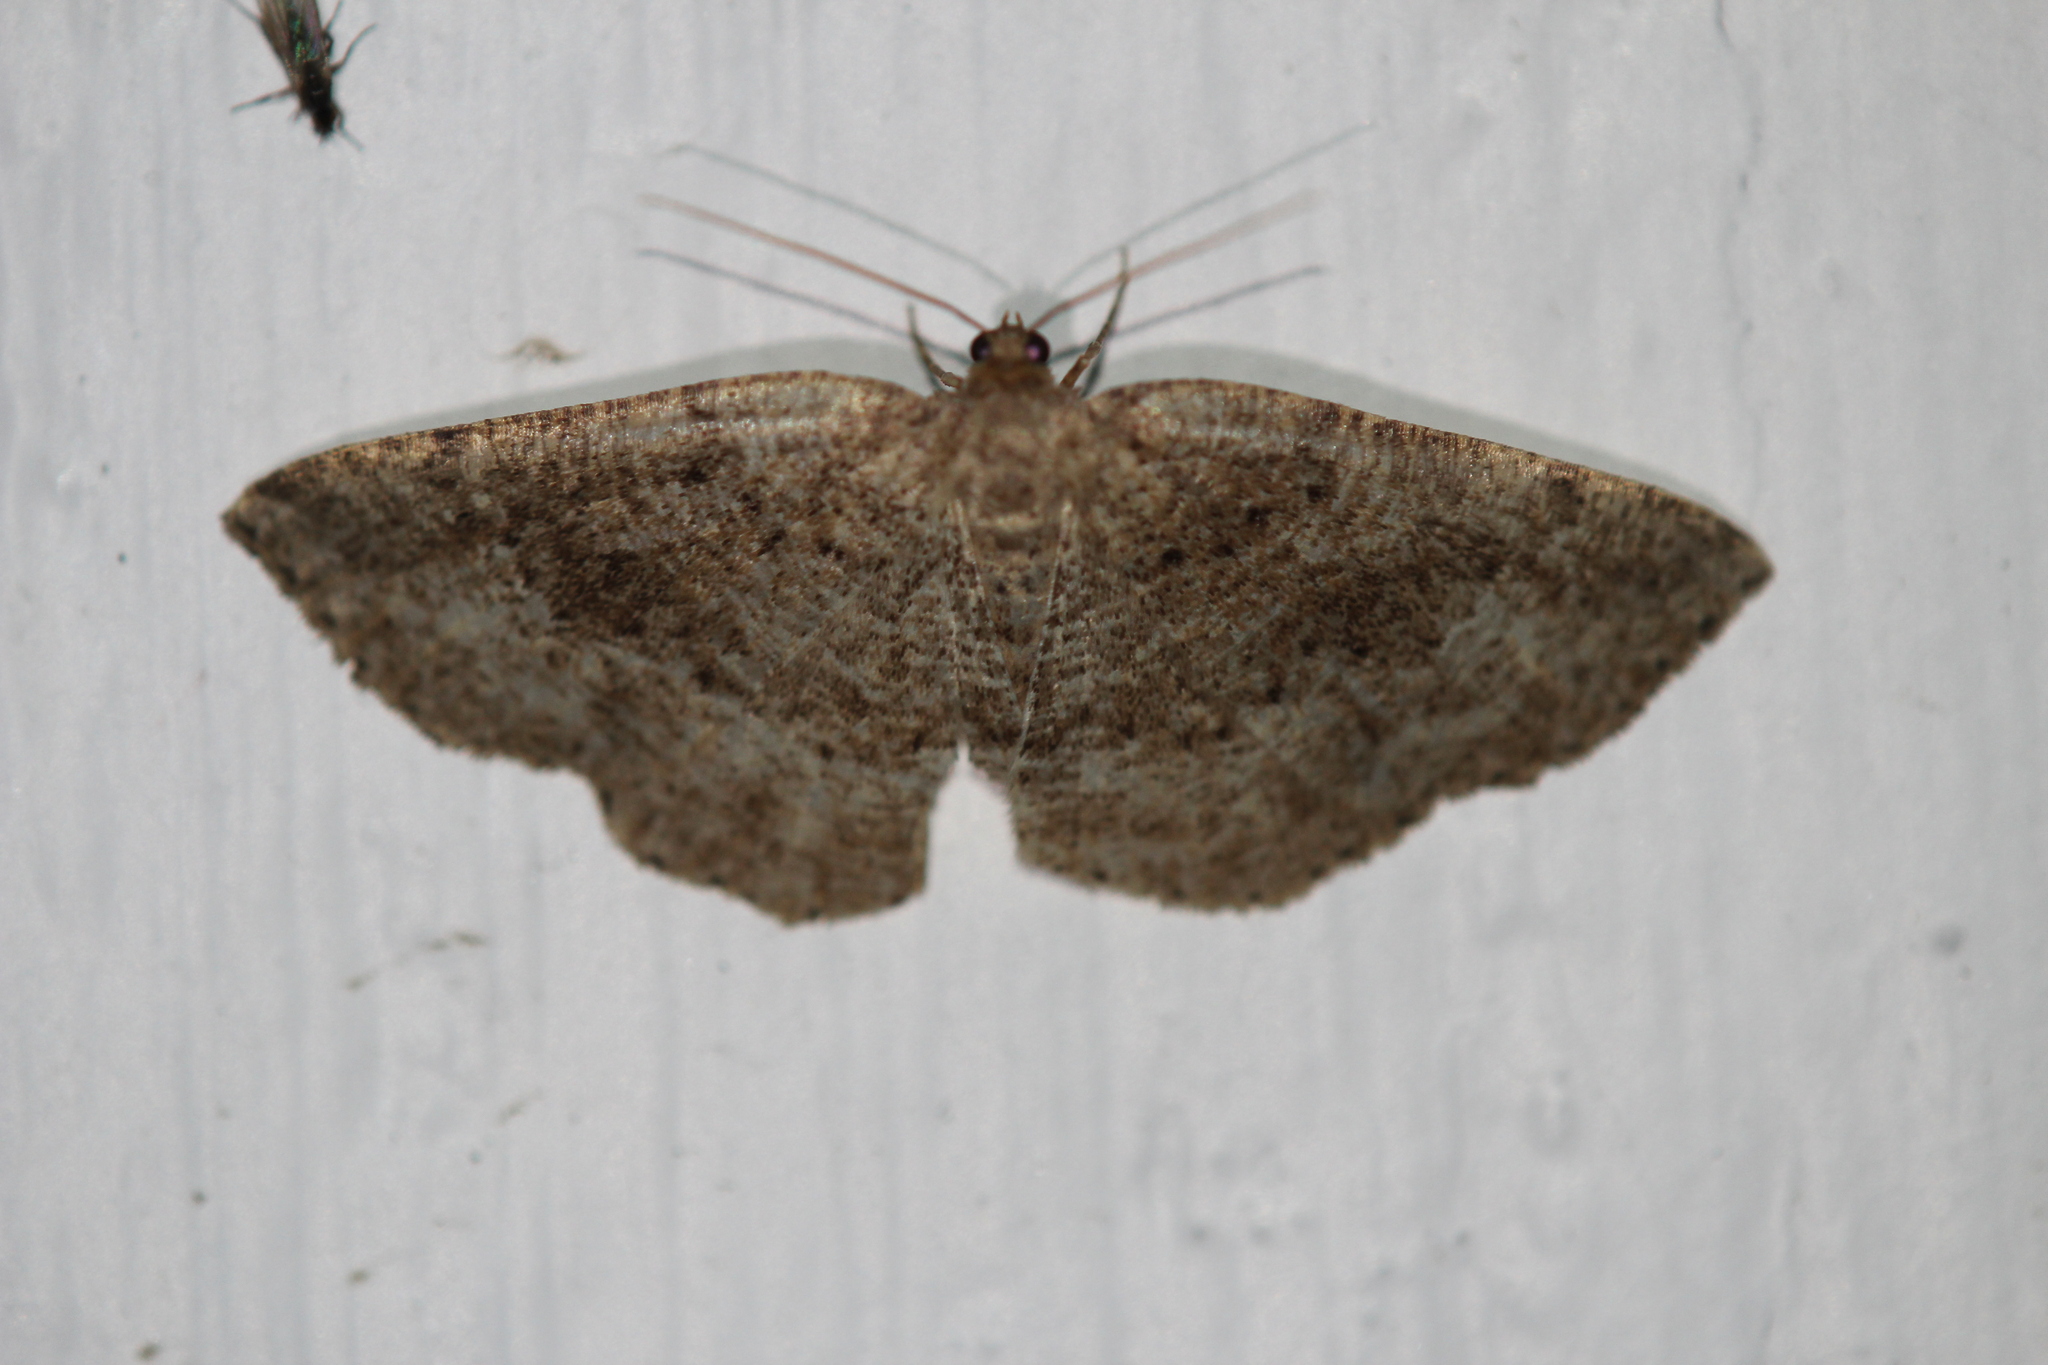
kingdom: Animalia
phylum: Arthropoda
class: Insecta
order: Lepidoptera
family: Geometridae
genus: Homochlodes
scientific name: Homochlodes fritillaria
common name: Pale homochlodes
